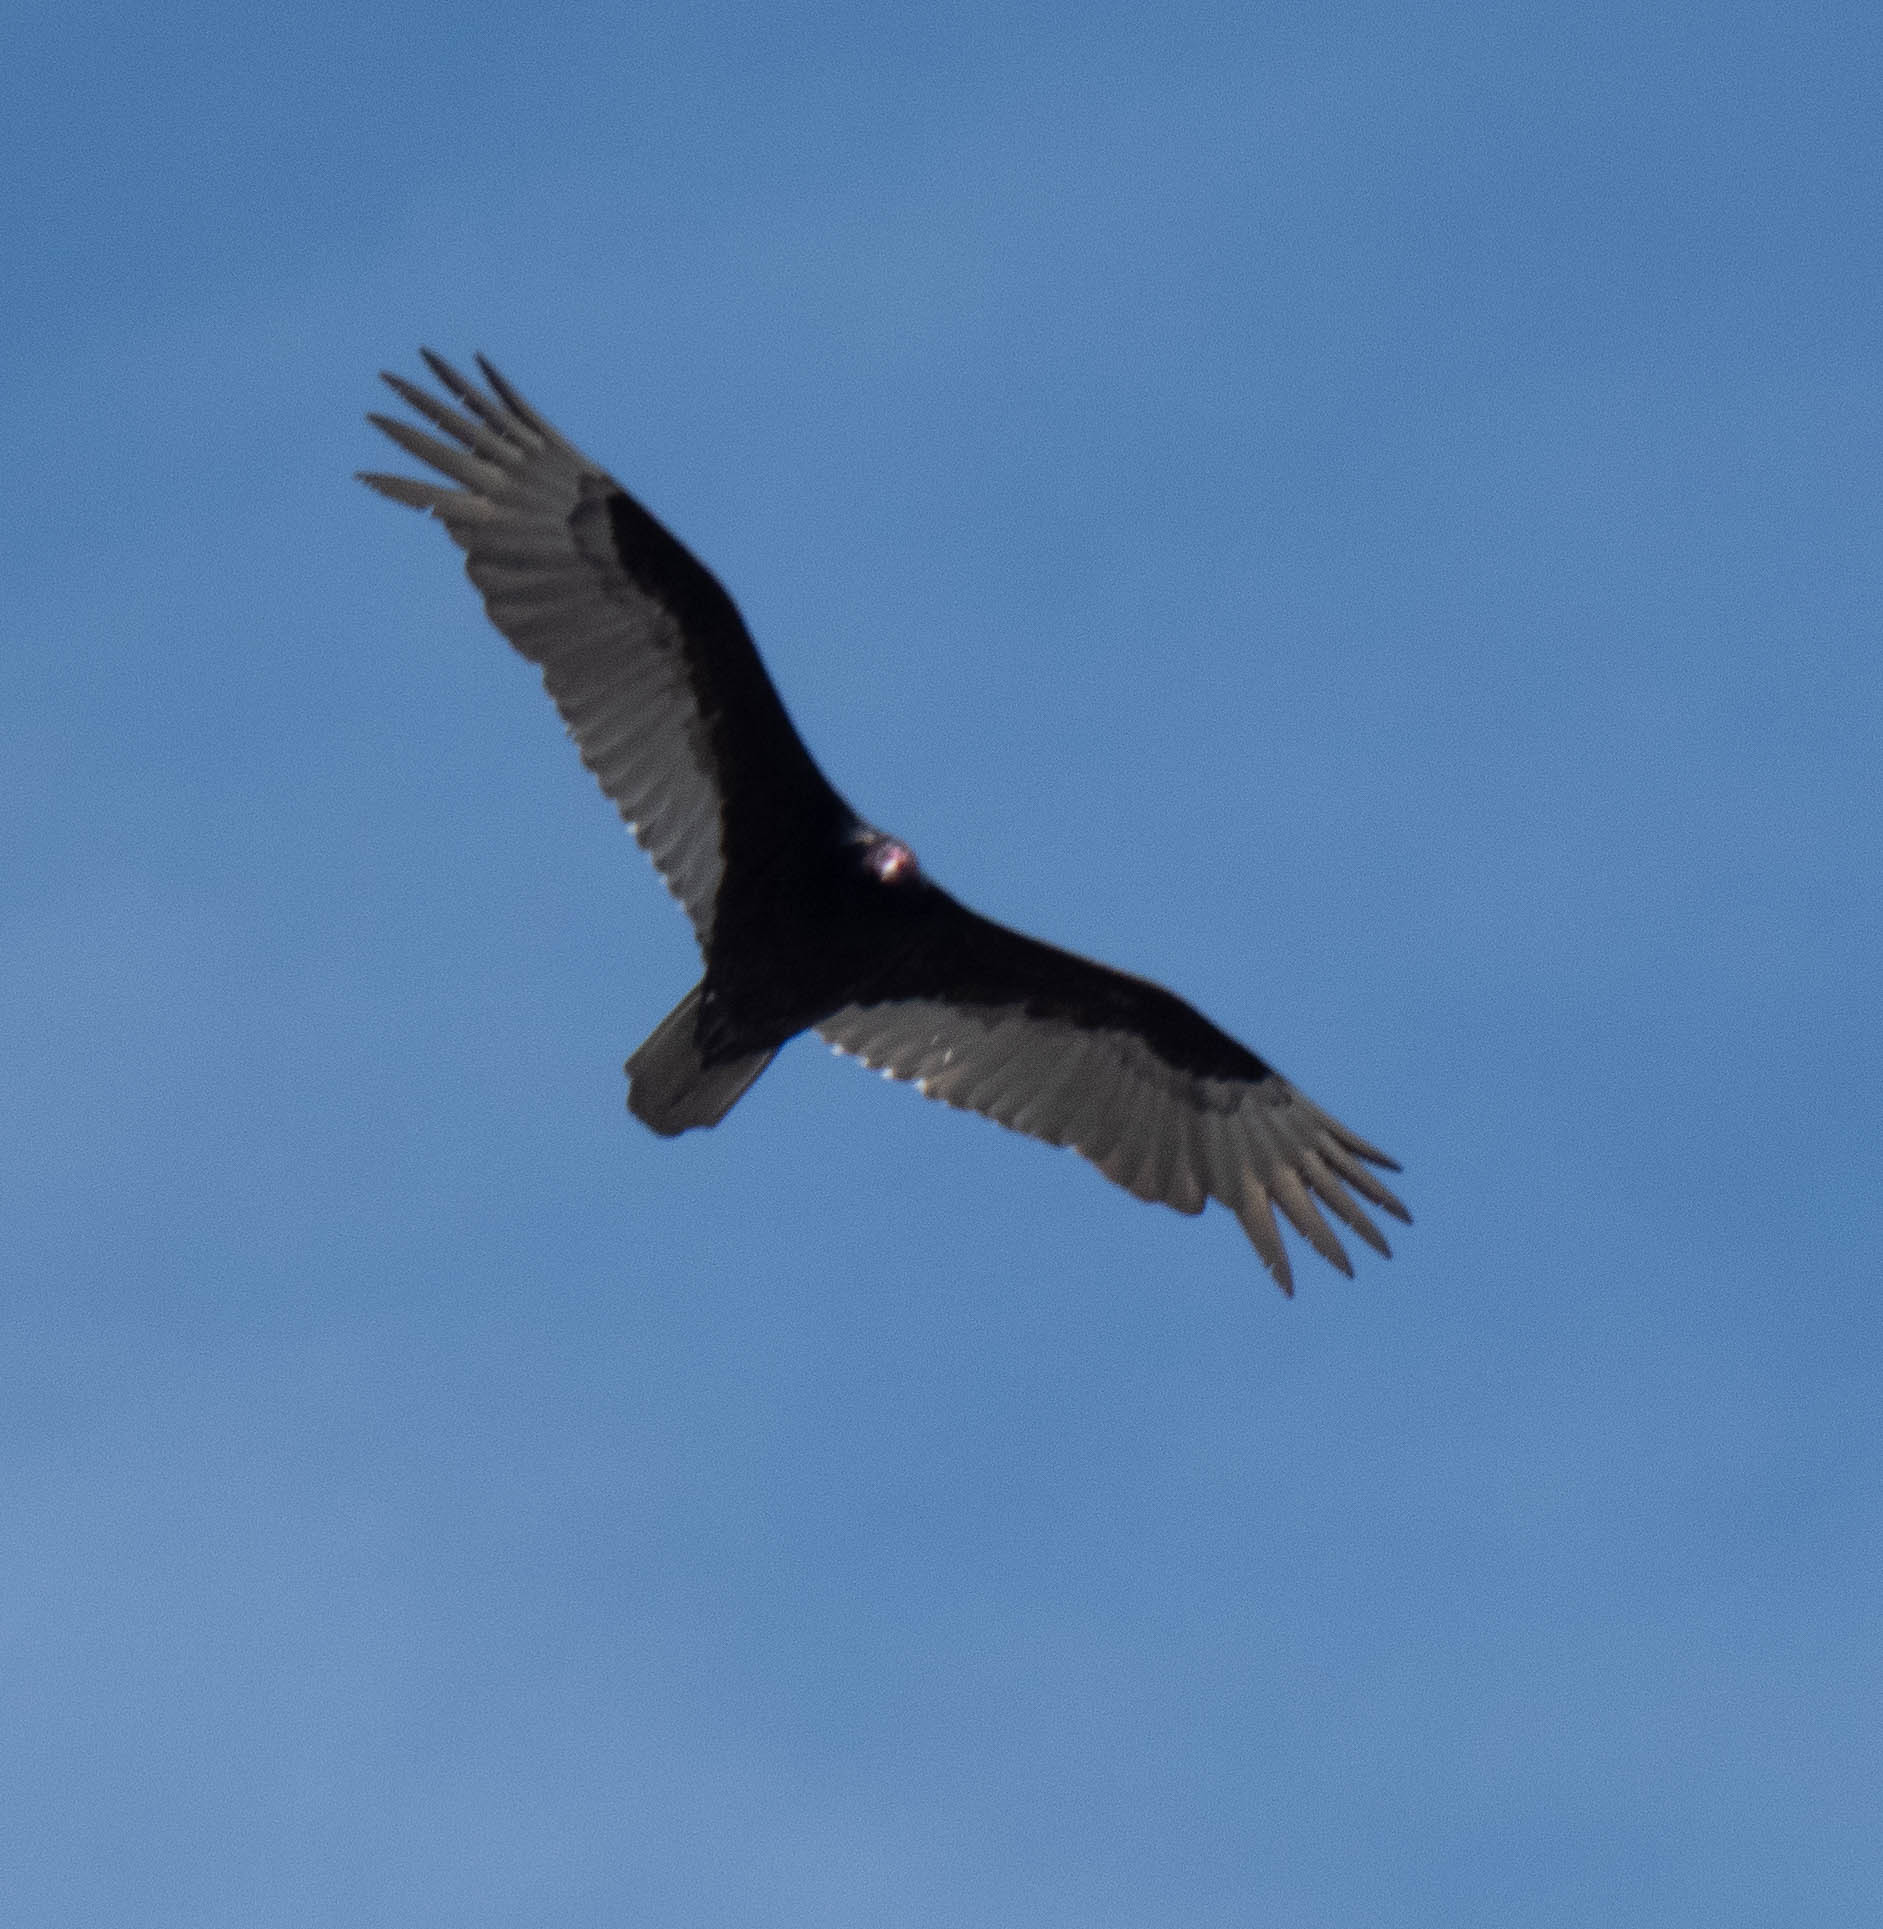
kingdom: Animalia
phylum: Chordata
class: Aves
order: Accipitriformes
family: Cathartidae
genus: Cathartes
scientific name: Cathartes aura
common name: Turkey vulture
